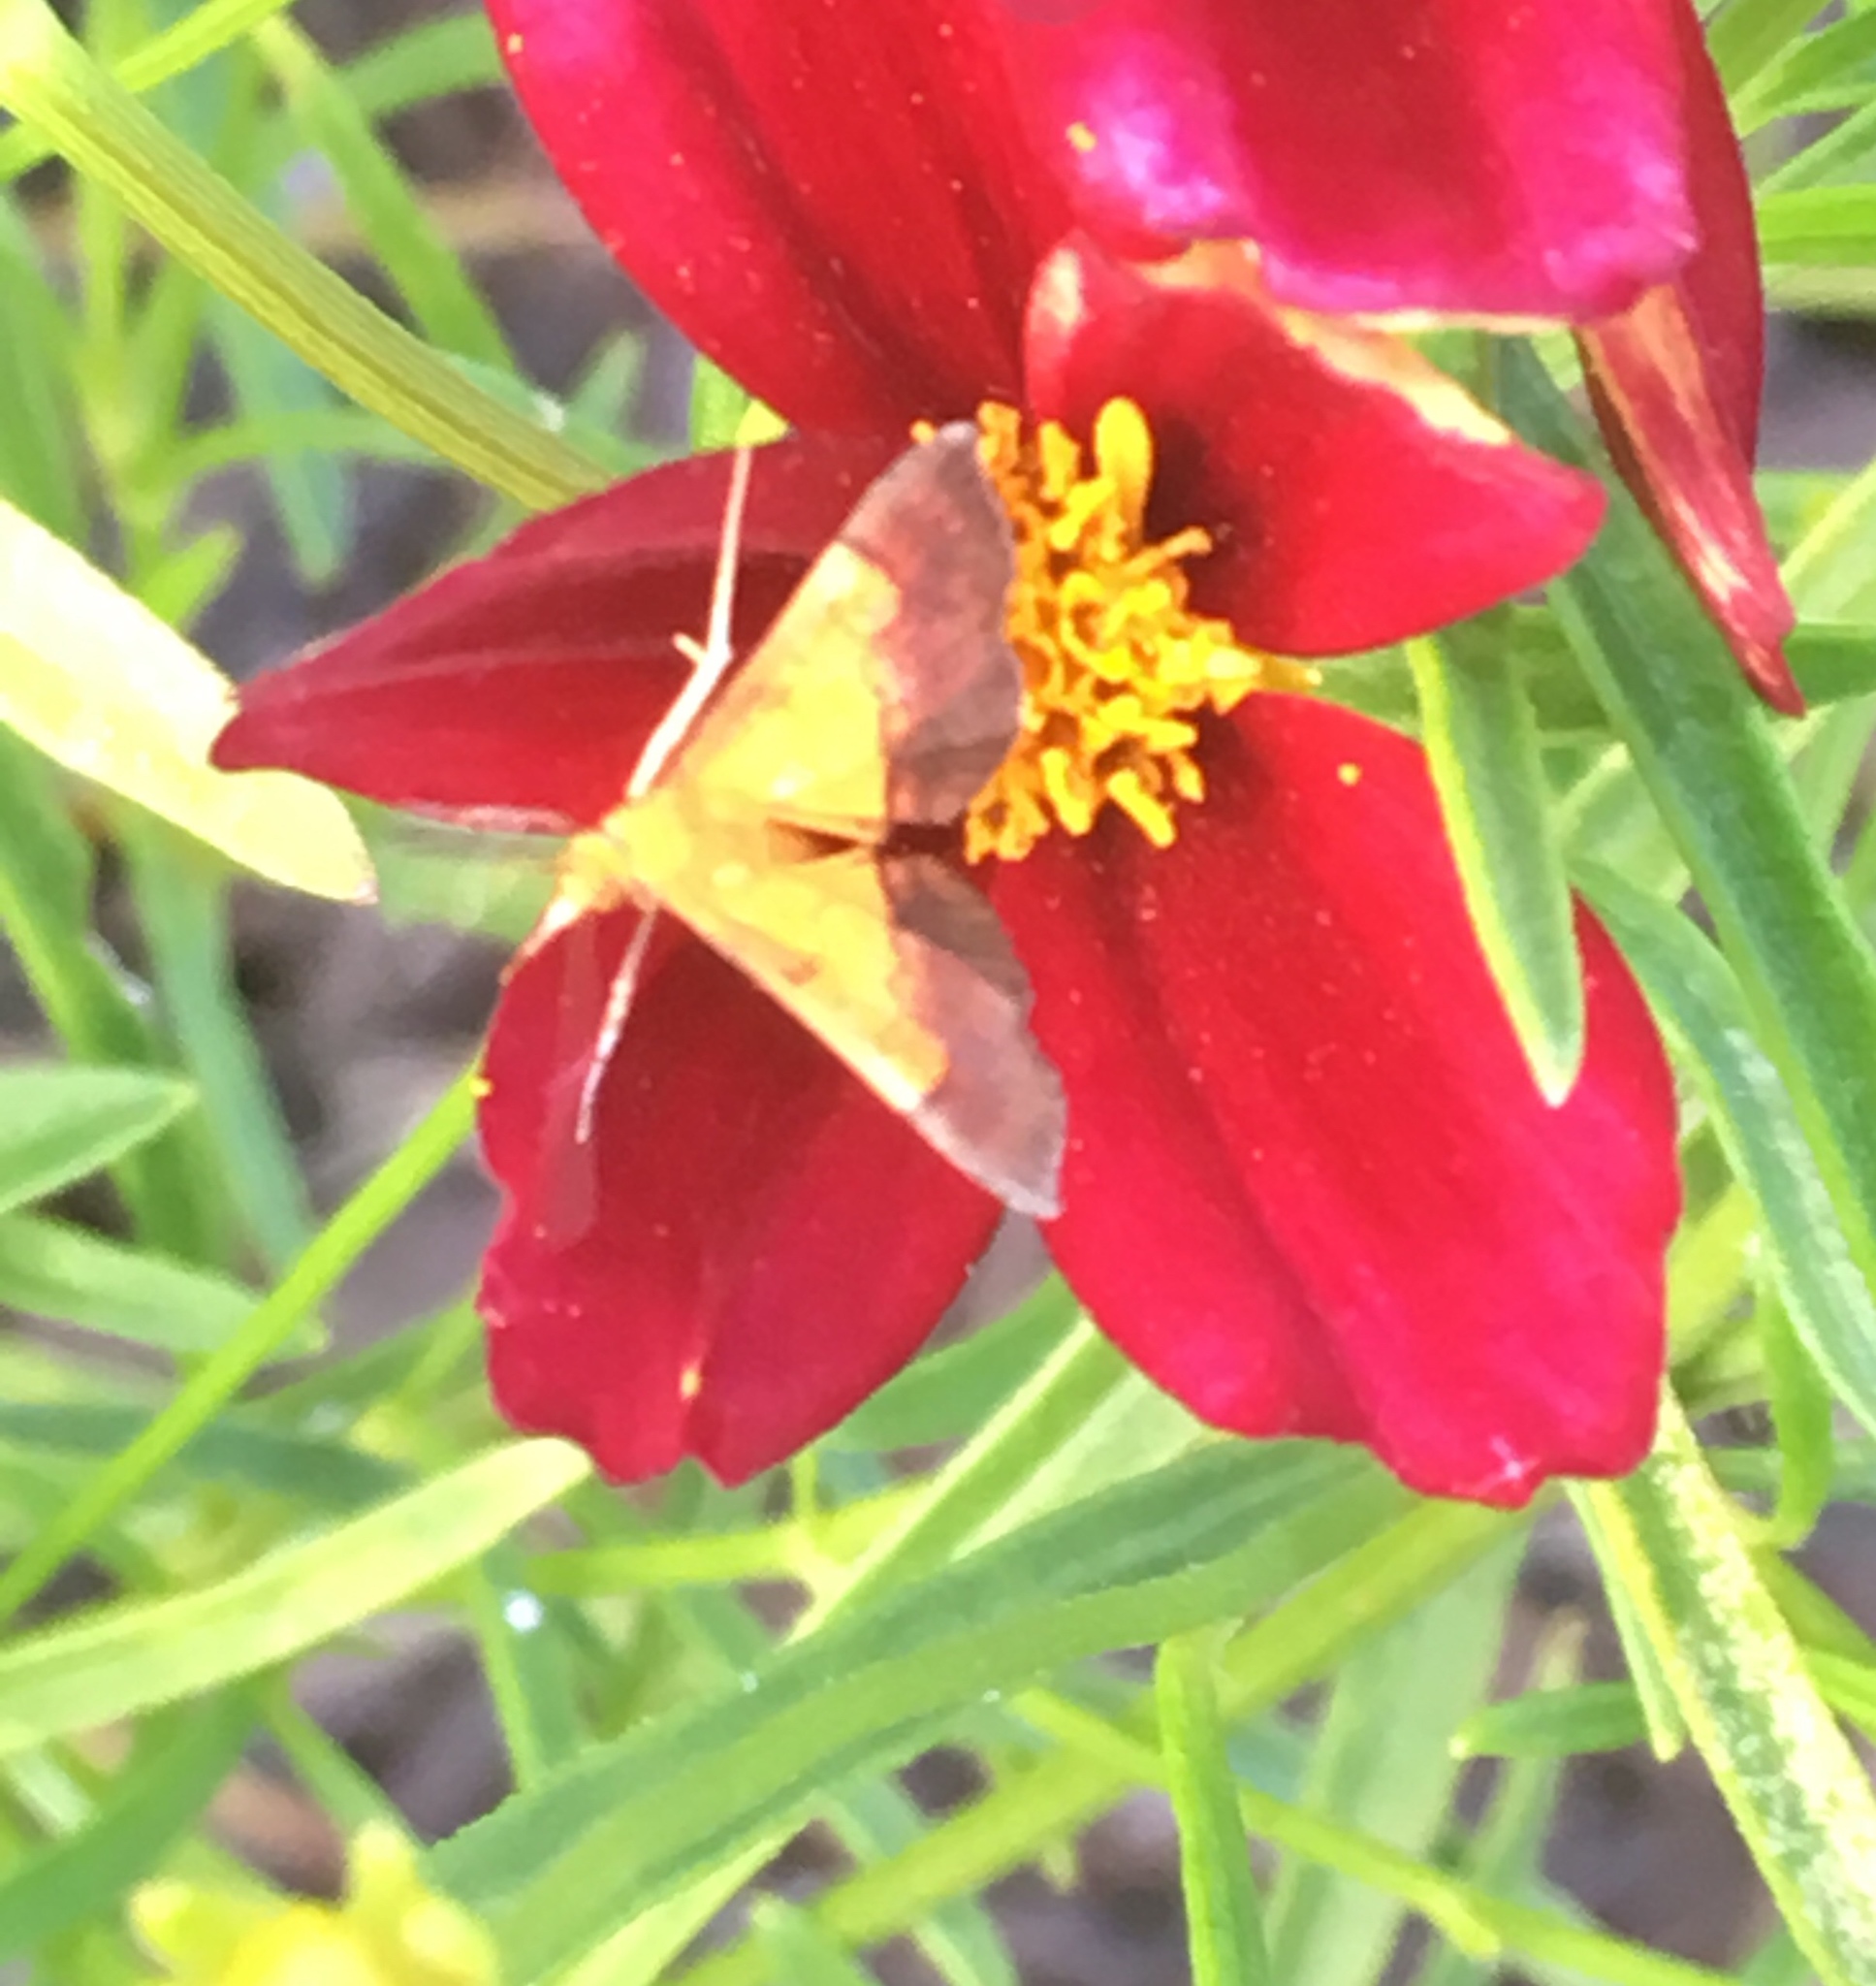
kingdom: Animalia
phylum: Arthropoda
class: Insecta
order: Lepidoptera
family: Crambidae
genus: Pyrausta
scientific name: Pyrausta bicoloralis
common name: Bicolored pyrausta moth
